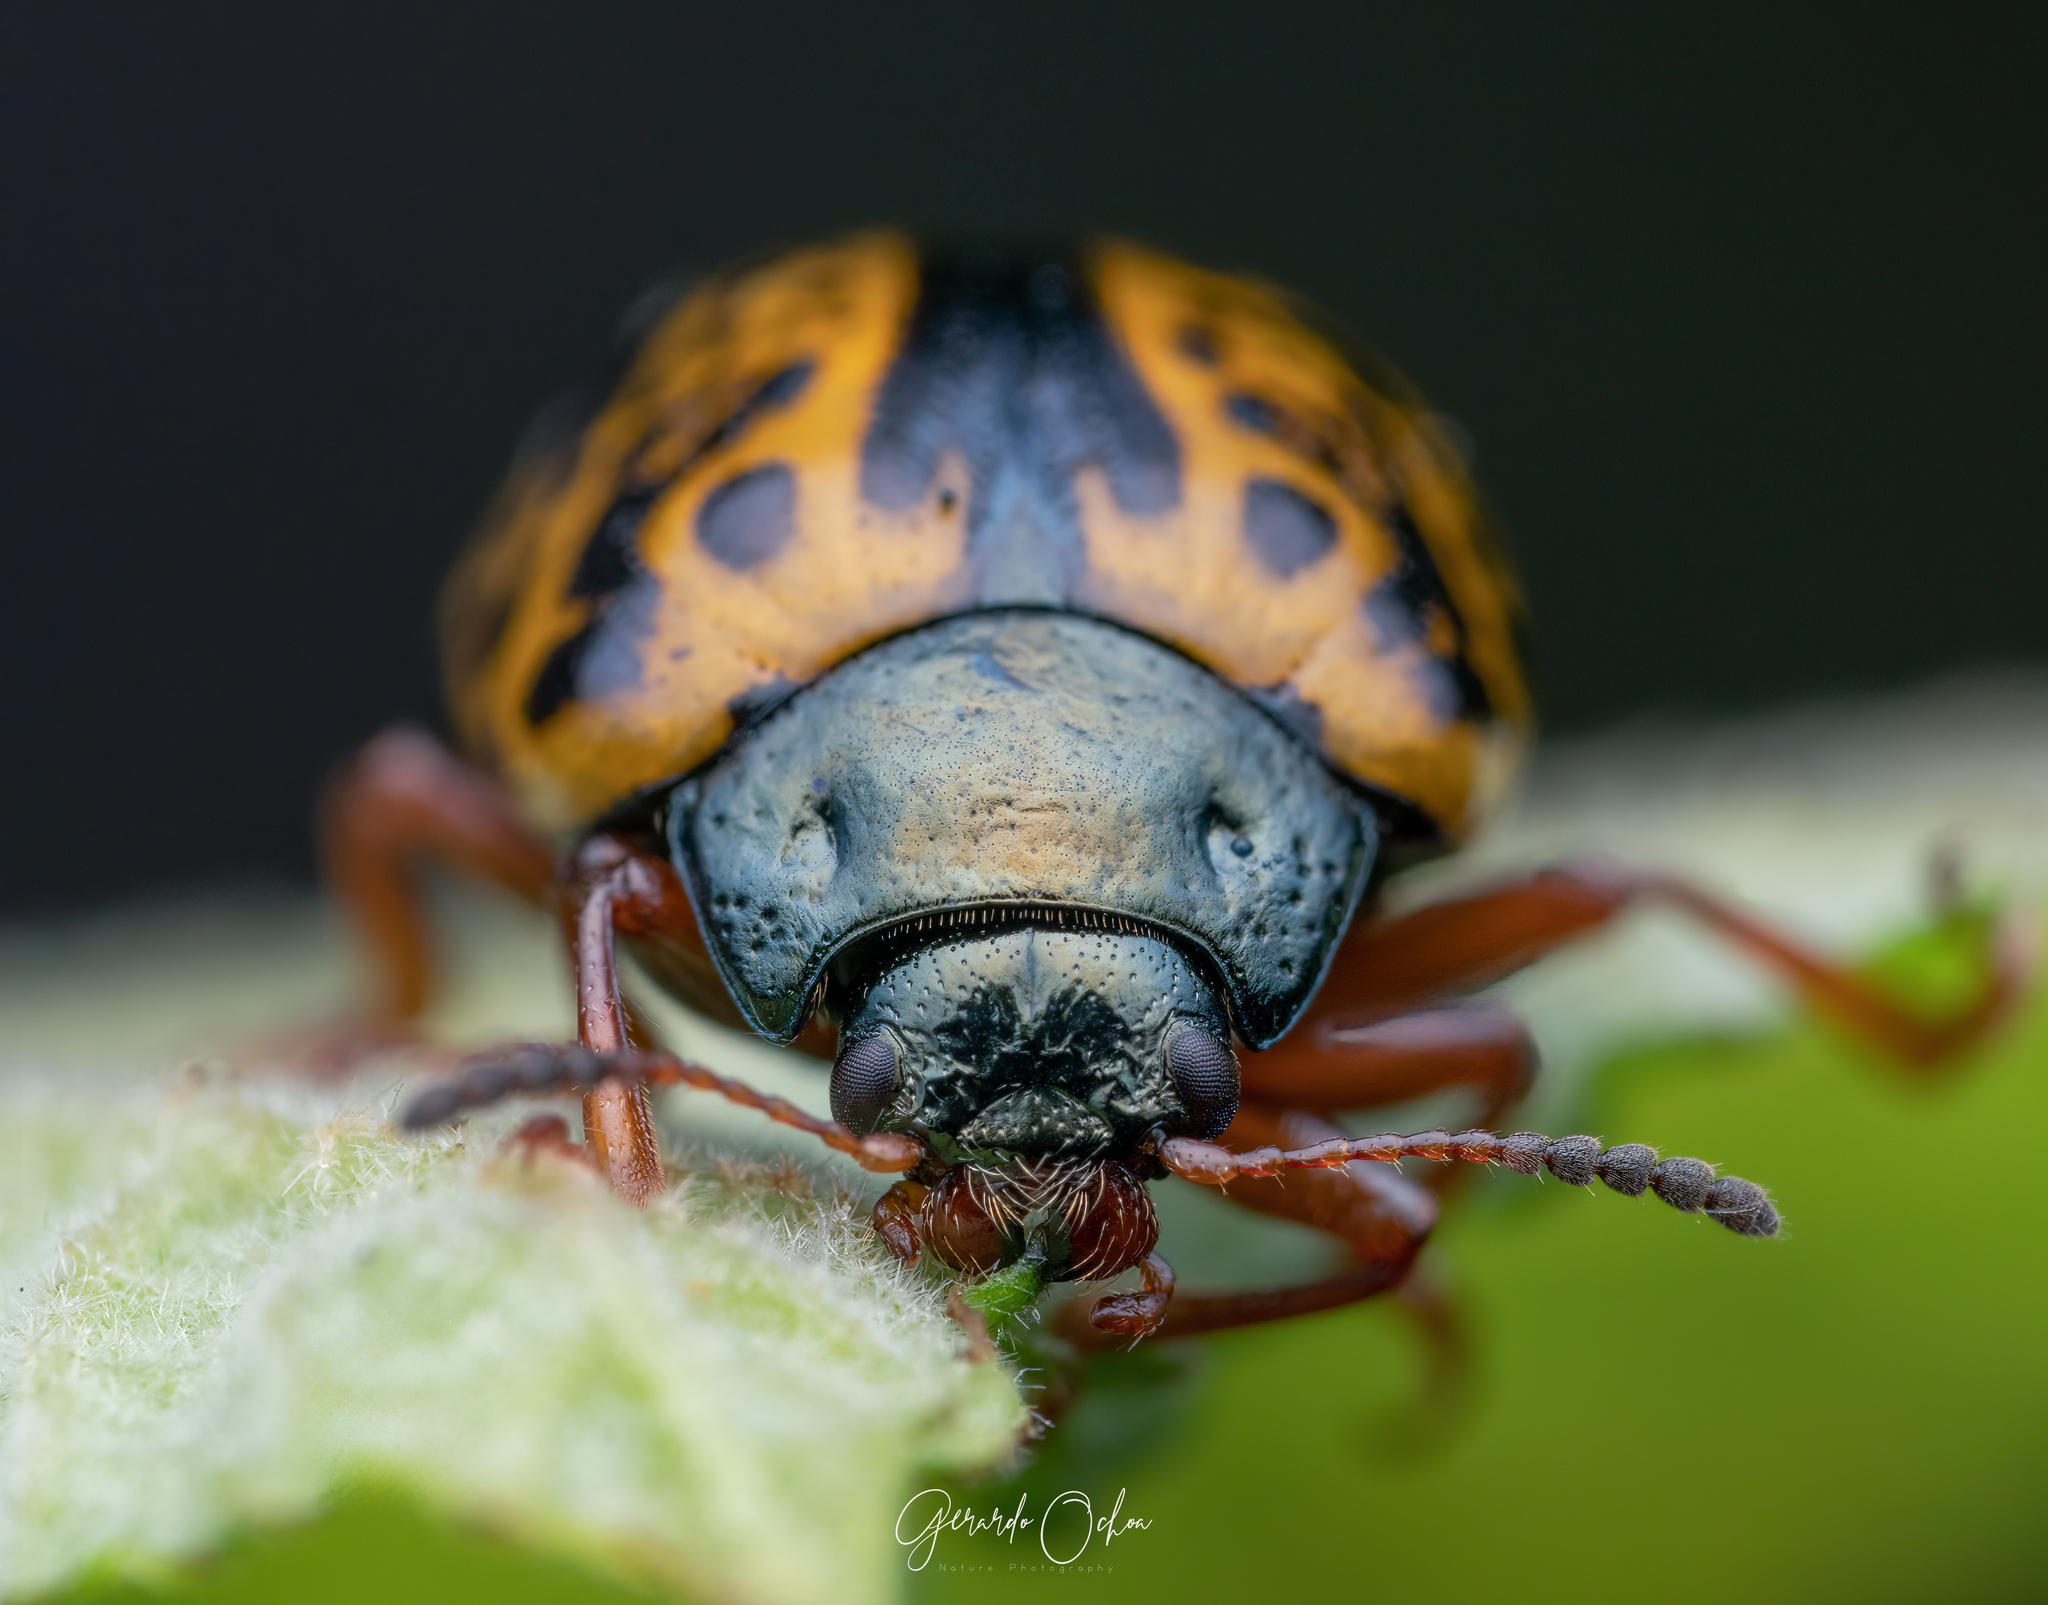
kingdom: Animalia
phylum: Arthropoda
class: Insecta
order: Coleoptera
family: Chrysomelidae
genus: Calligrapha
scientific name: Calligrapha felina
